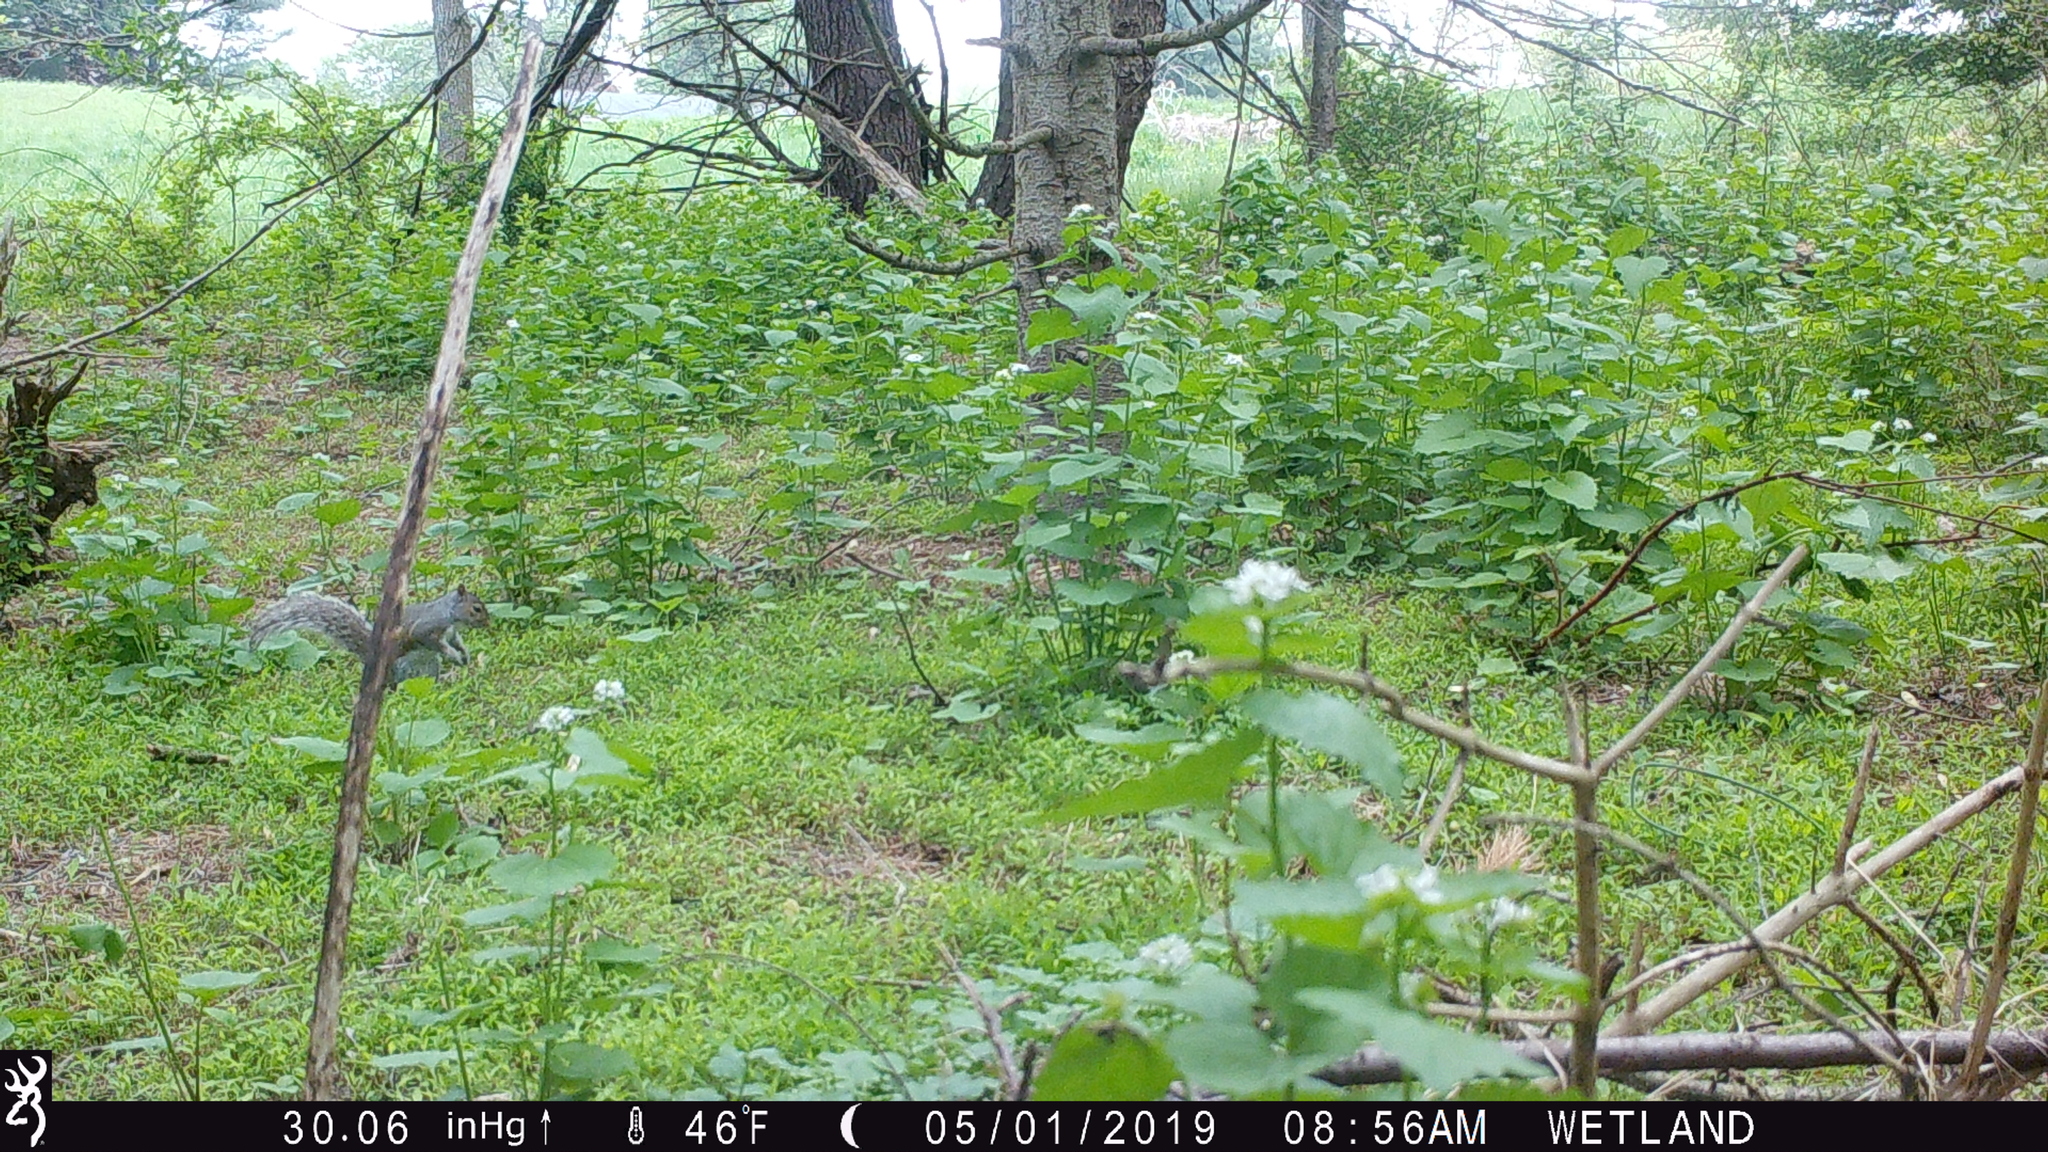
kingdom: Animalia
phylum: Chordata
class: Mammalia
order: Rodentia
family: Sciuridae
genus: Sciurus
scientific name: Sciurus carolinensis
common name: Eastern gray squirrel
